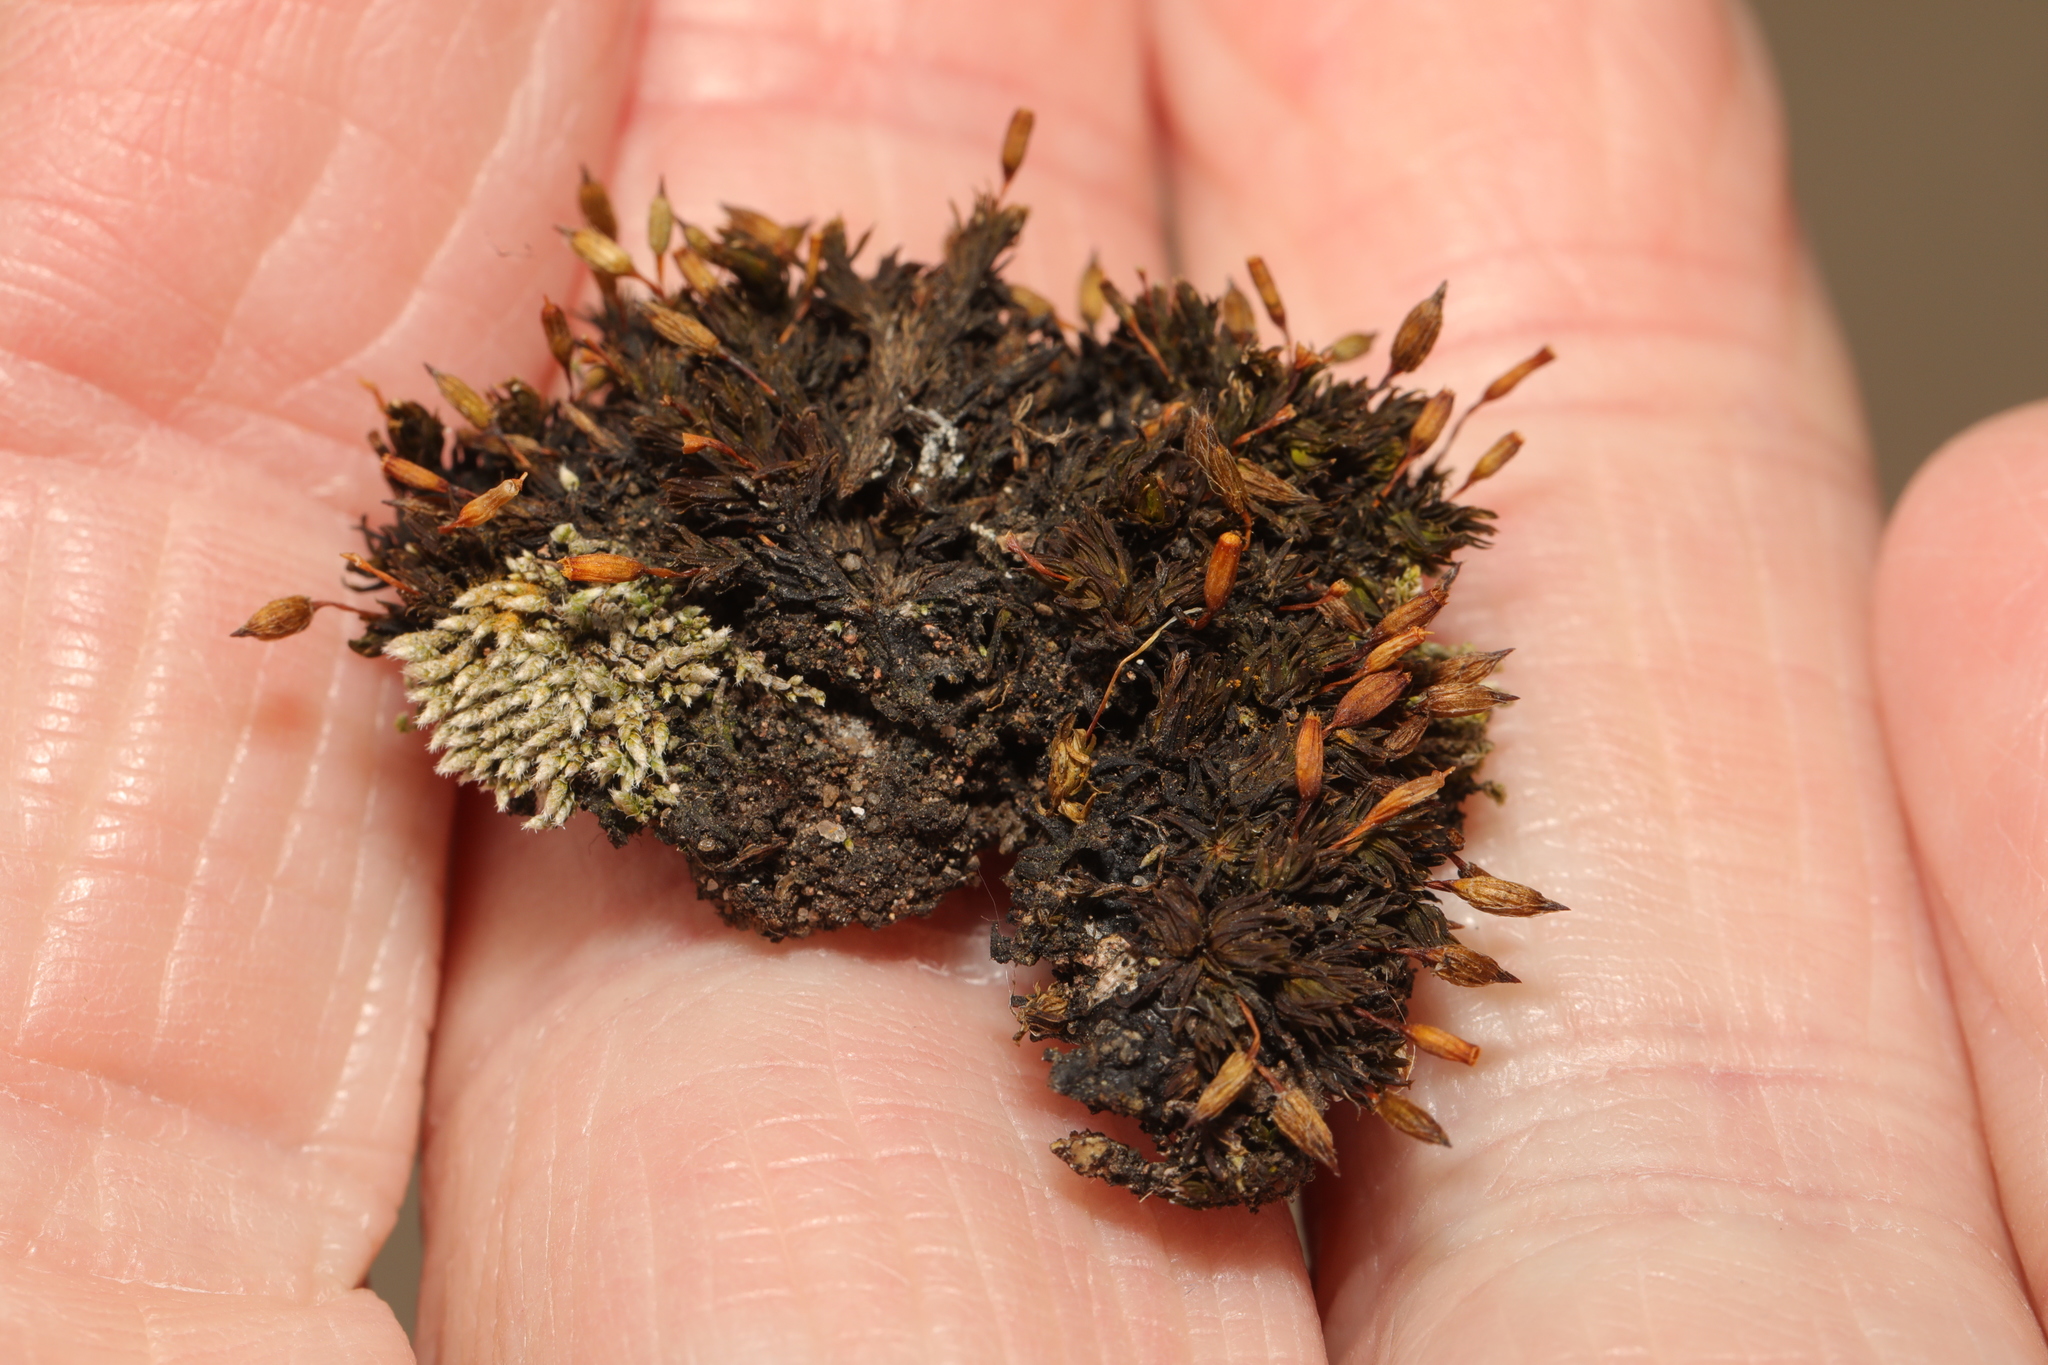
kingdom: Plantae
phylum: Bryophyta
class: Bryopsida
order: Orthotrichales
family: Orthotrichaceae
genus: Orthotrichum
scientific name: Orthotrichum anomalum
